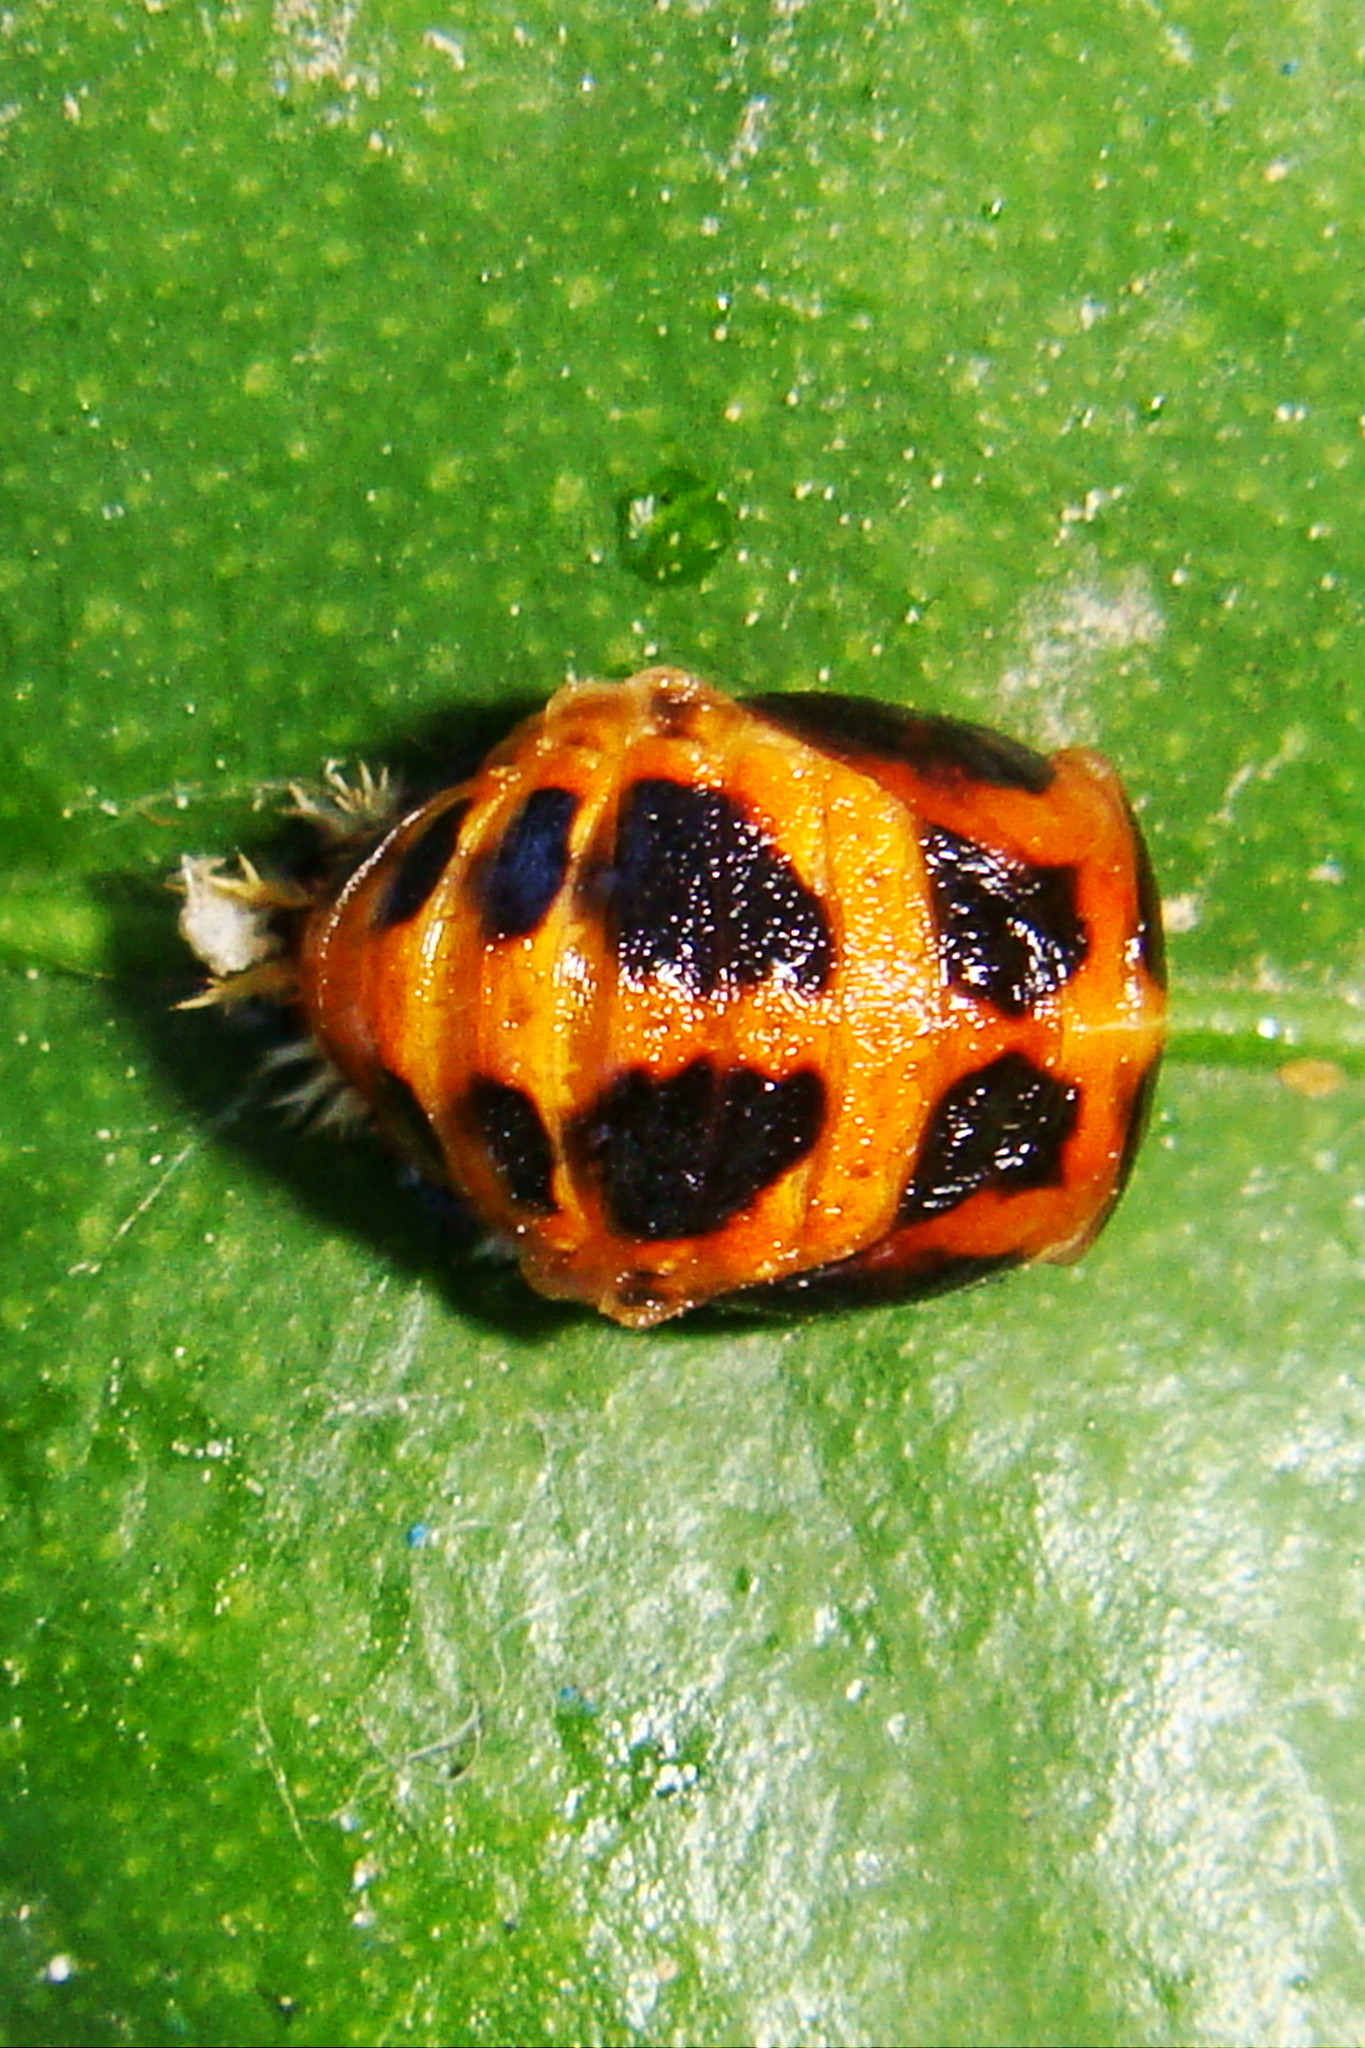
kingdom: Animalia
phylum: Arthropoda
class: Insecta
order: Coleoptera
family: Coccinellidae
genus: Harmonia
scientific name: Harmonia axyridis
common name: Harlequin ladybird
